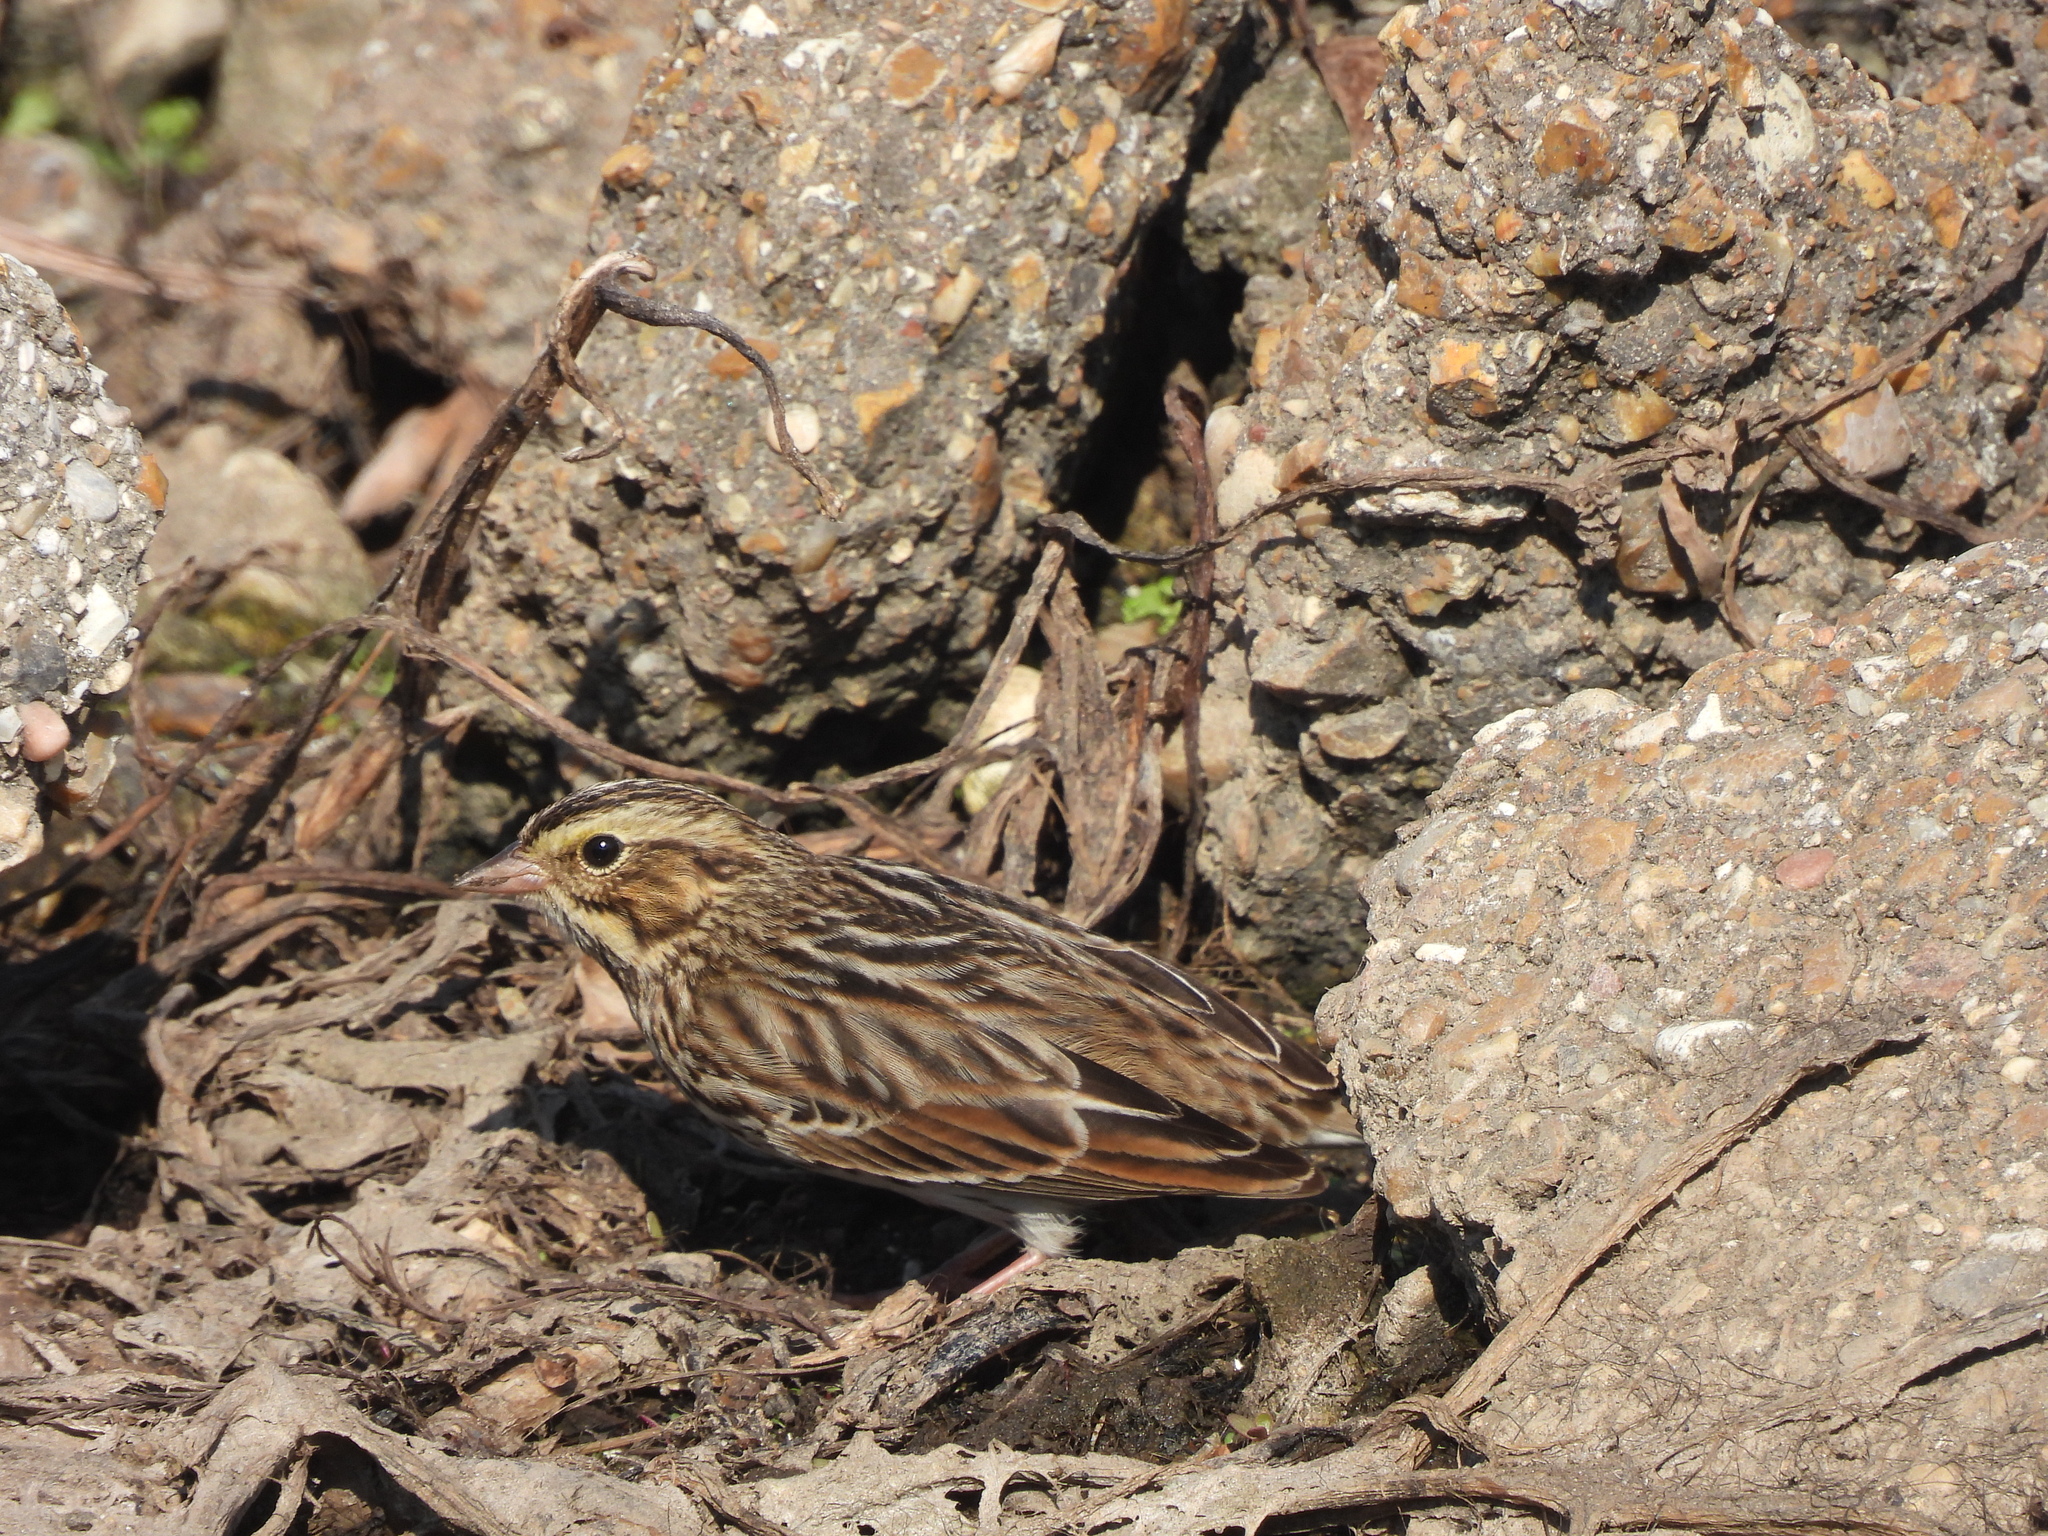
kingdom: Animalia
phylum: Chordata
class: Aves
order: Passeriformes
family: Passerellidae
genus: Passerculus
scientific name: Passerculus sandwichensis
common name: Savannah sparrow
